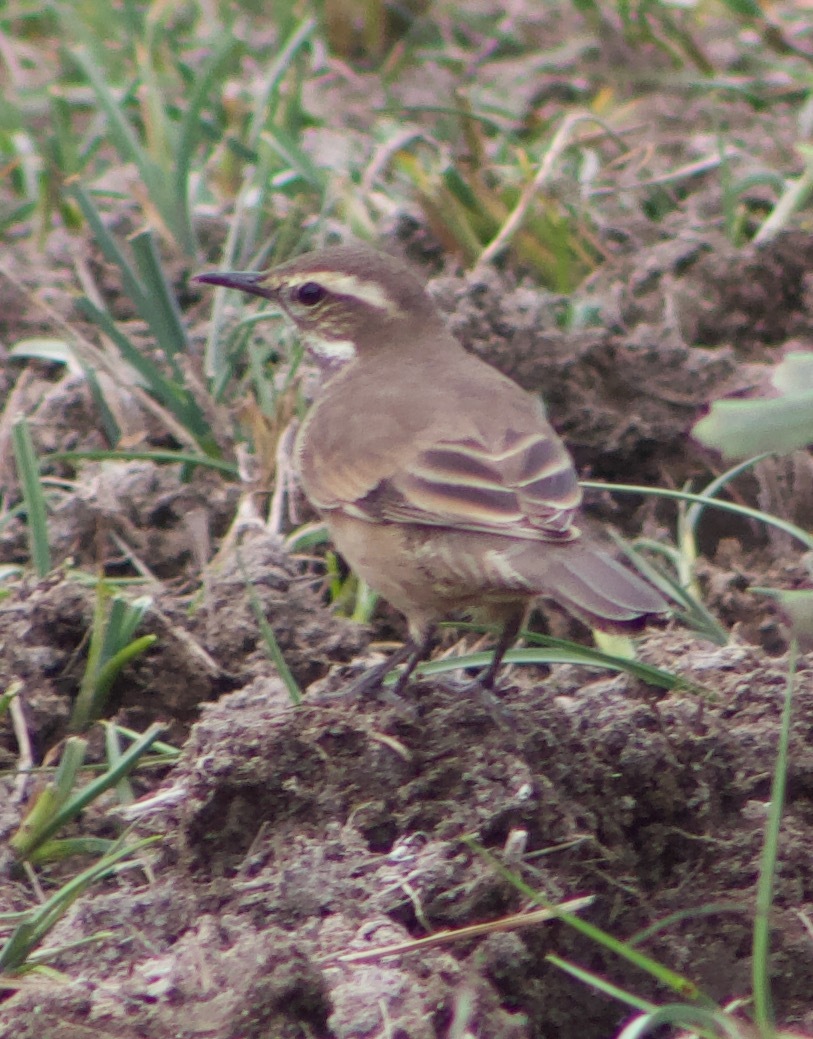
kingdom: Animalia
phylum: Chordata
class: Aves
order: Passeriformes
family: Furnariidae
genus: Cinclodes
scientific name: Cinclodes fuscus
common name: Buff-winged cinclodes
